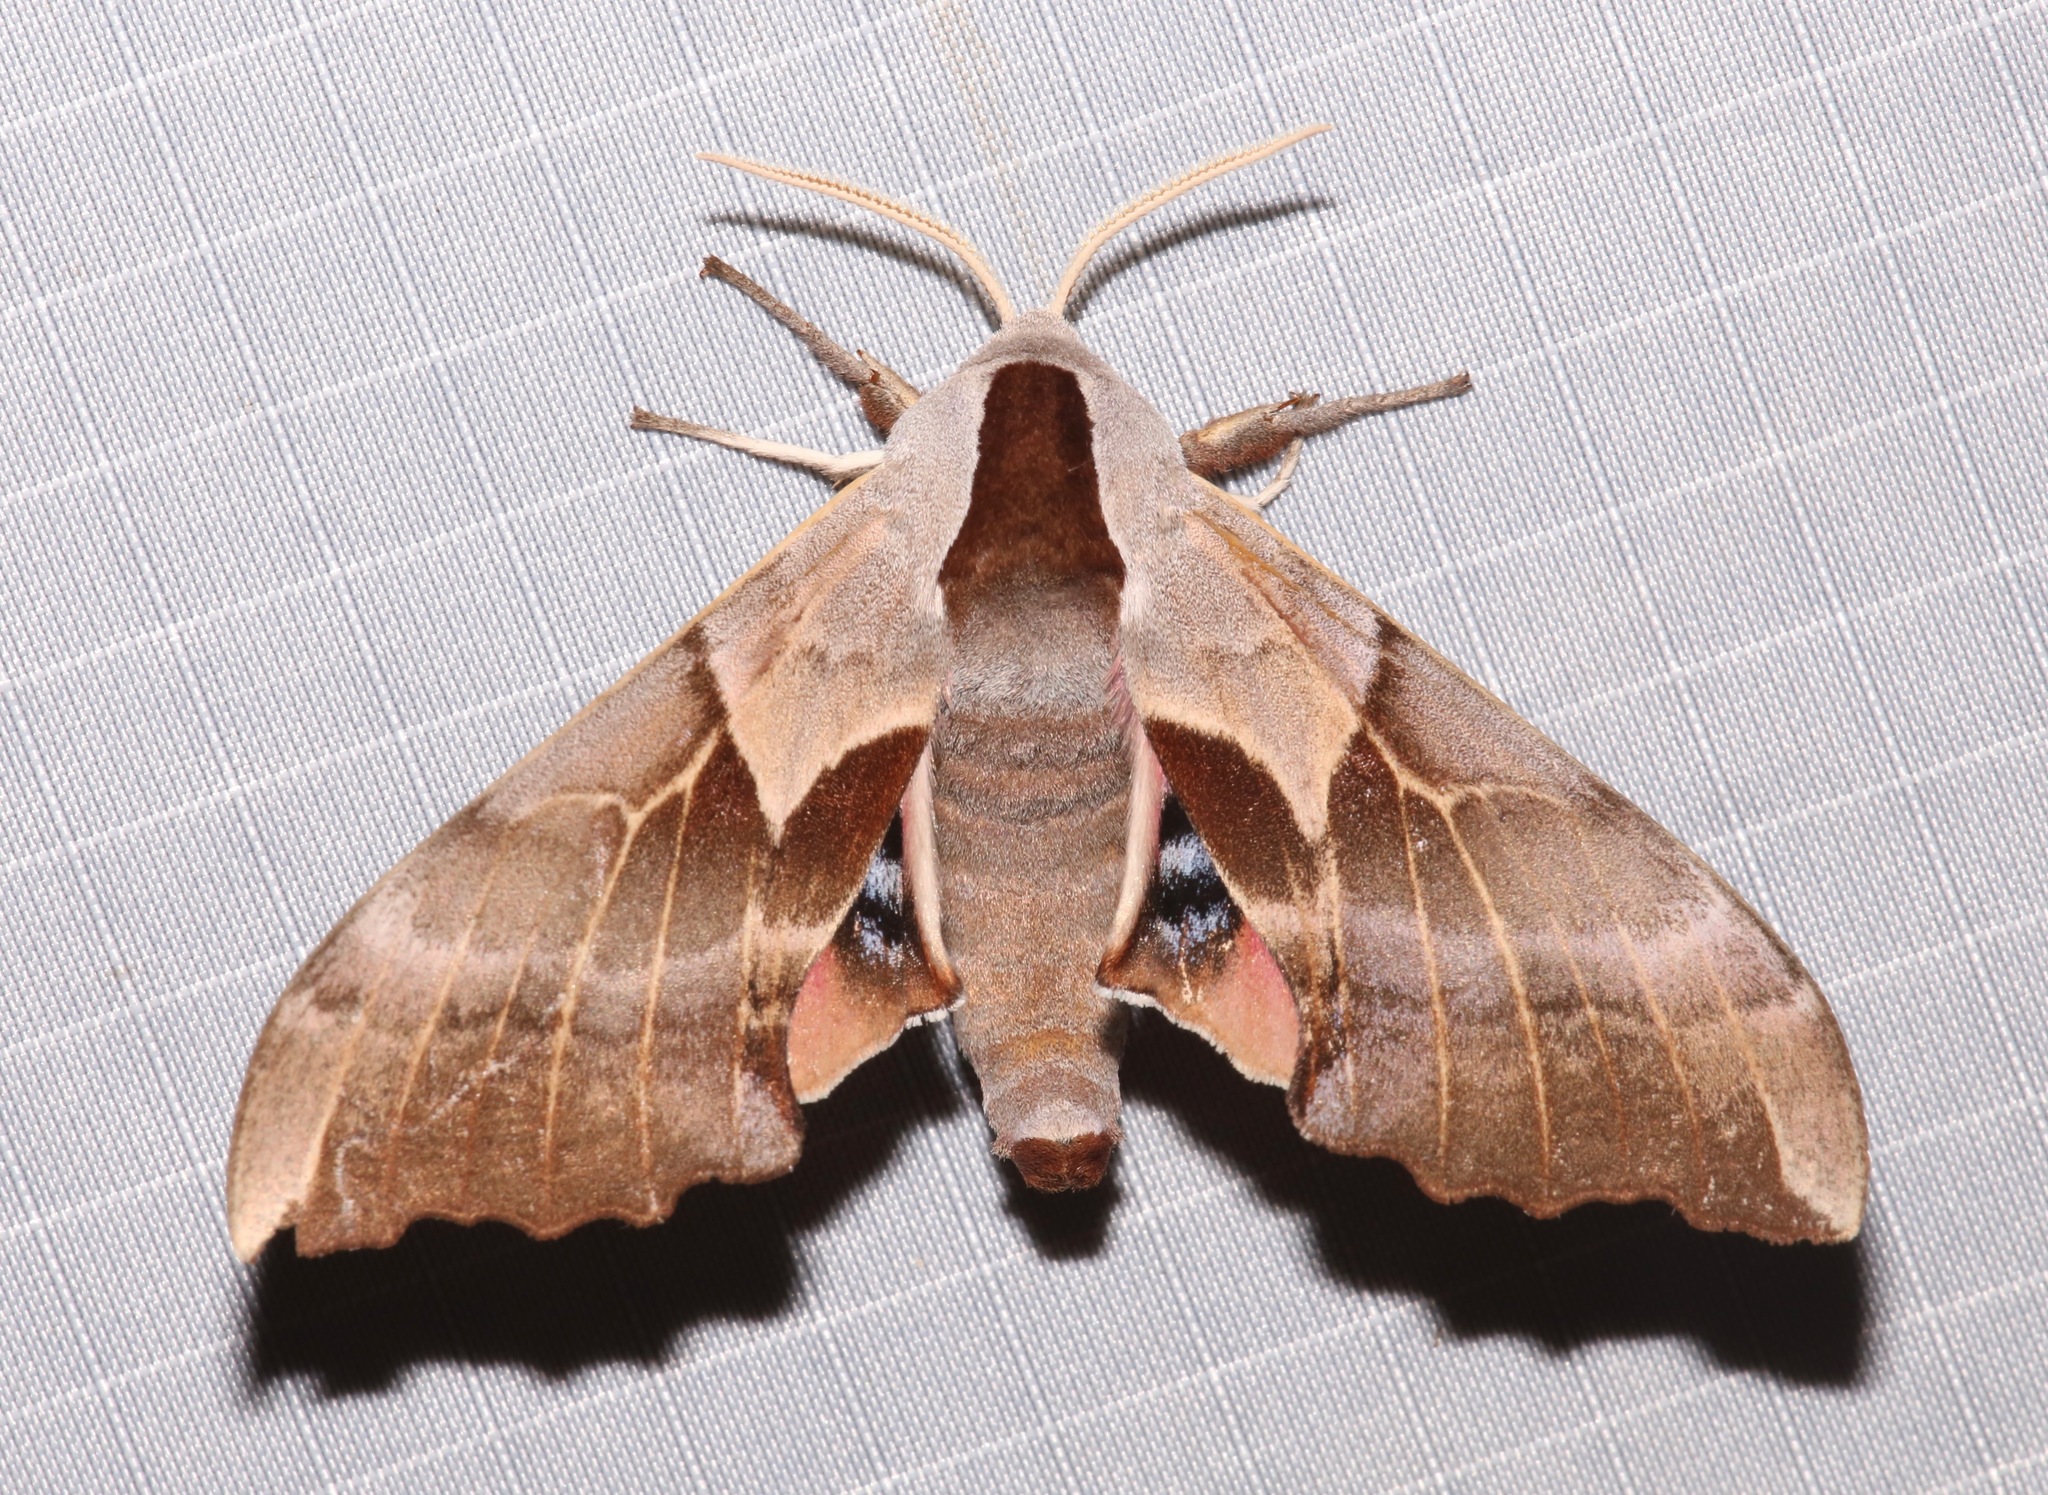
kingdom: Animalia
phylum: Arthropoda
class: Insecta
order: Lepidoptera
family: Sphingidae
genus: Smerinthus
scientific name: Smerinthus saliceti
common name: Salicet sphinx
